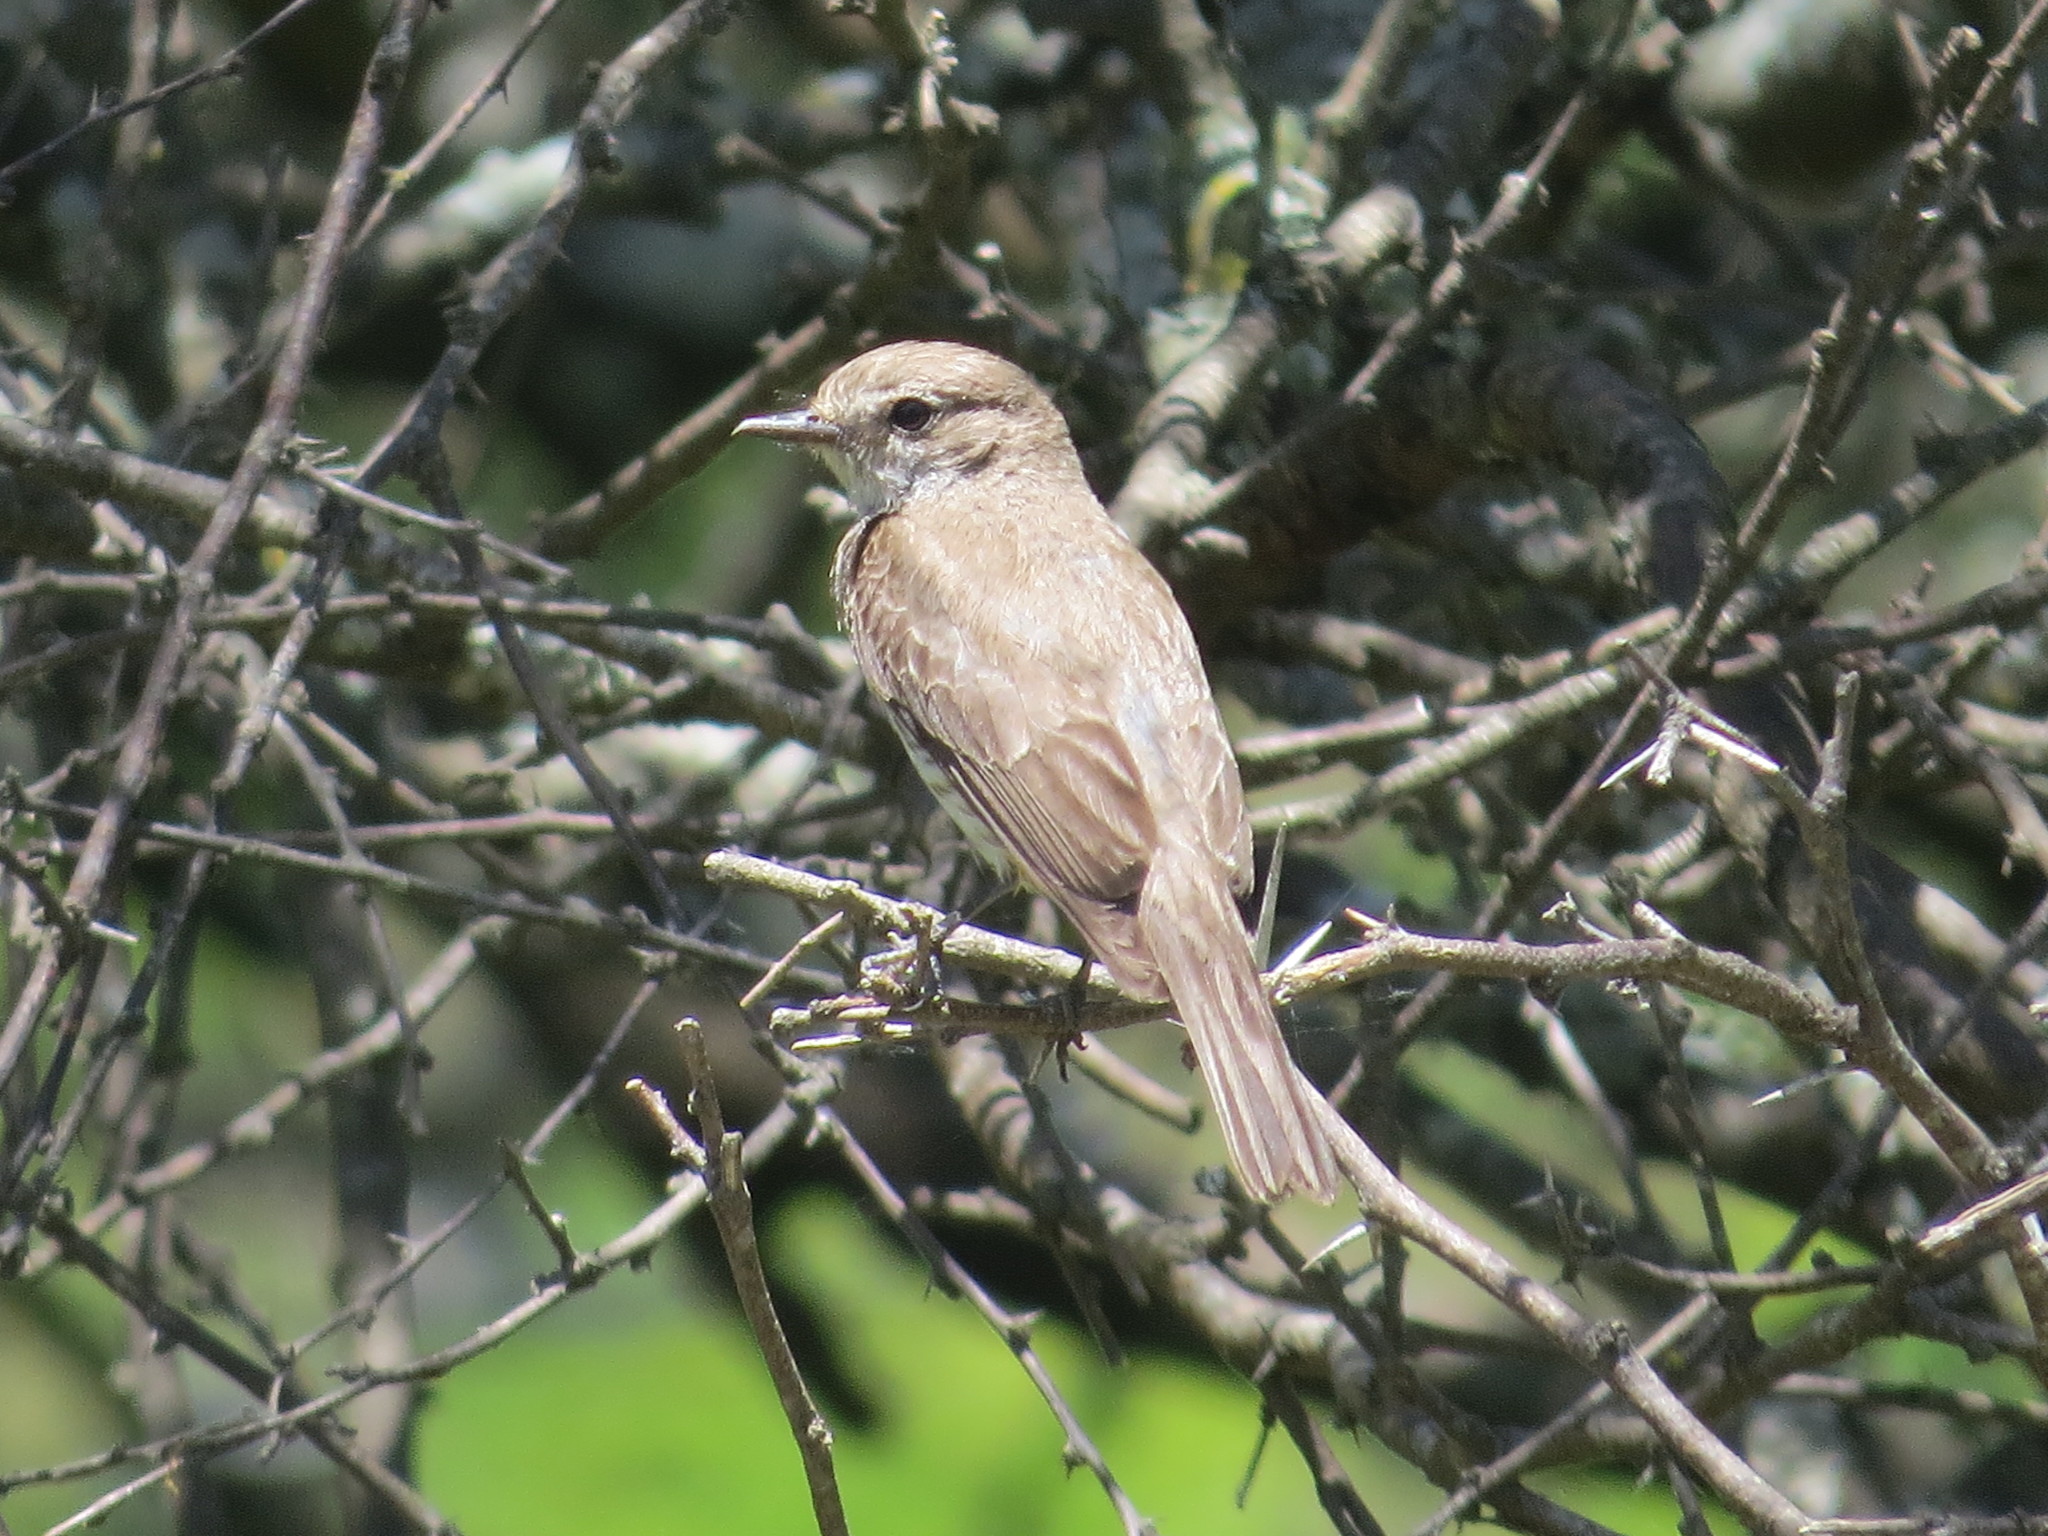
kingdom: Animalia
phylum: Chordata
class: Aves
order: Passeriformes
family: Tyrannidae
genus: Pyrocephalus
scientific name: Pyrocephalus rubinus
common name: Vermilion flycatcher
